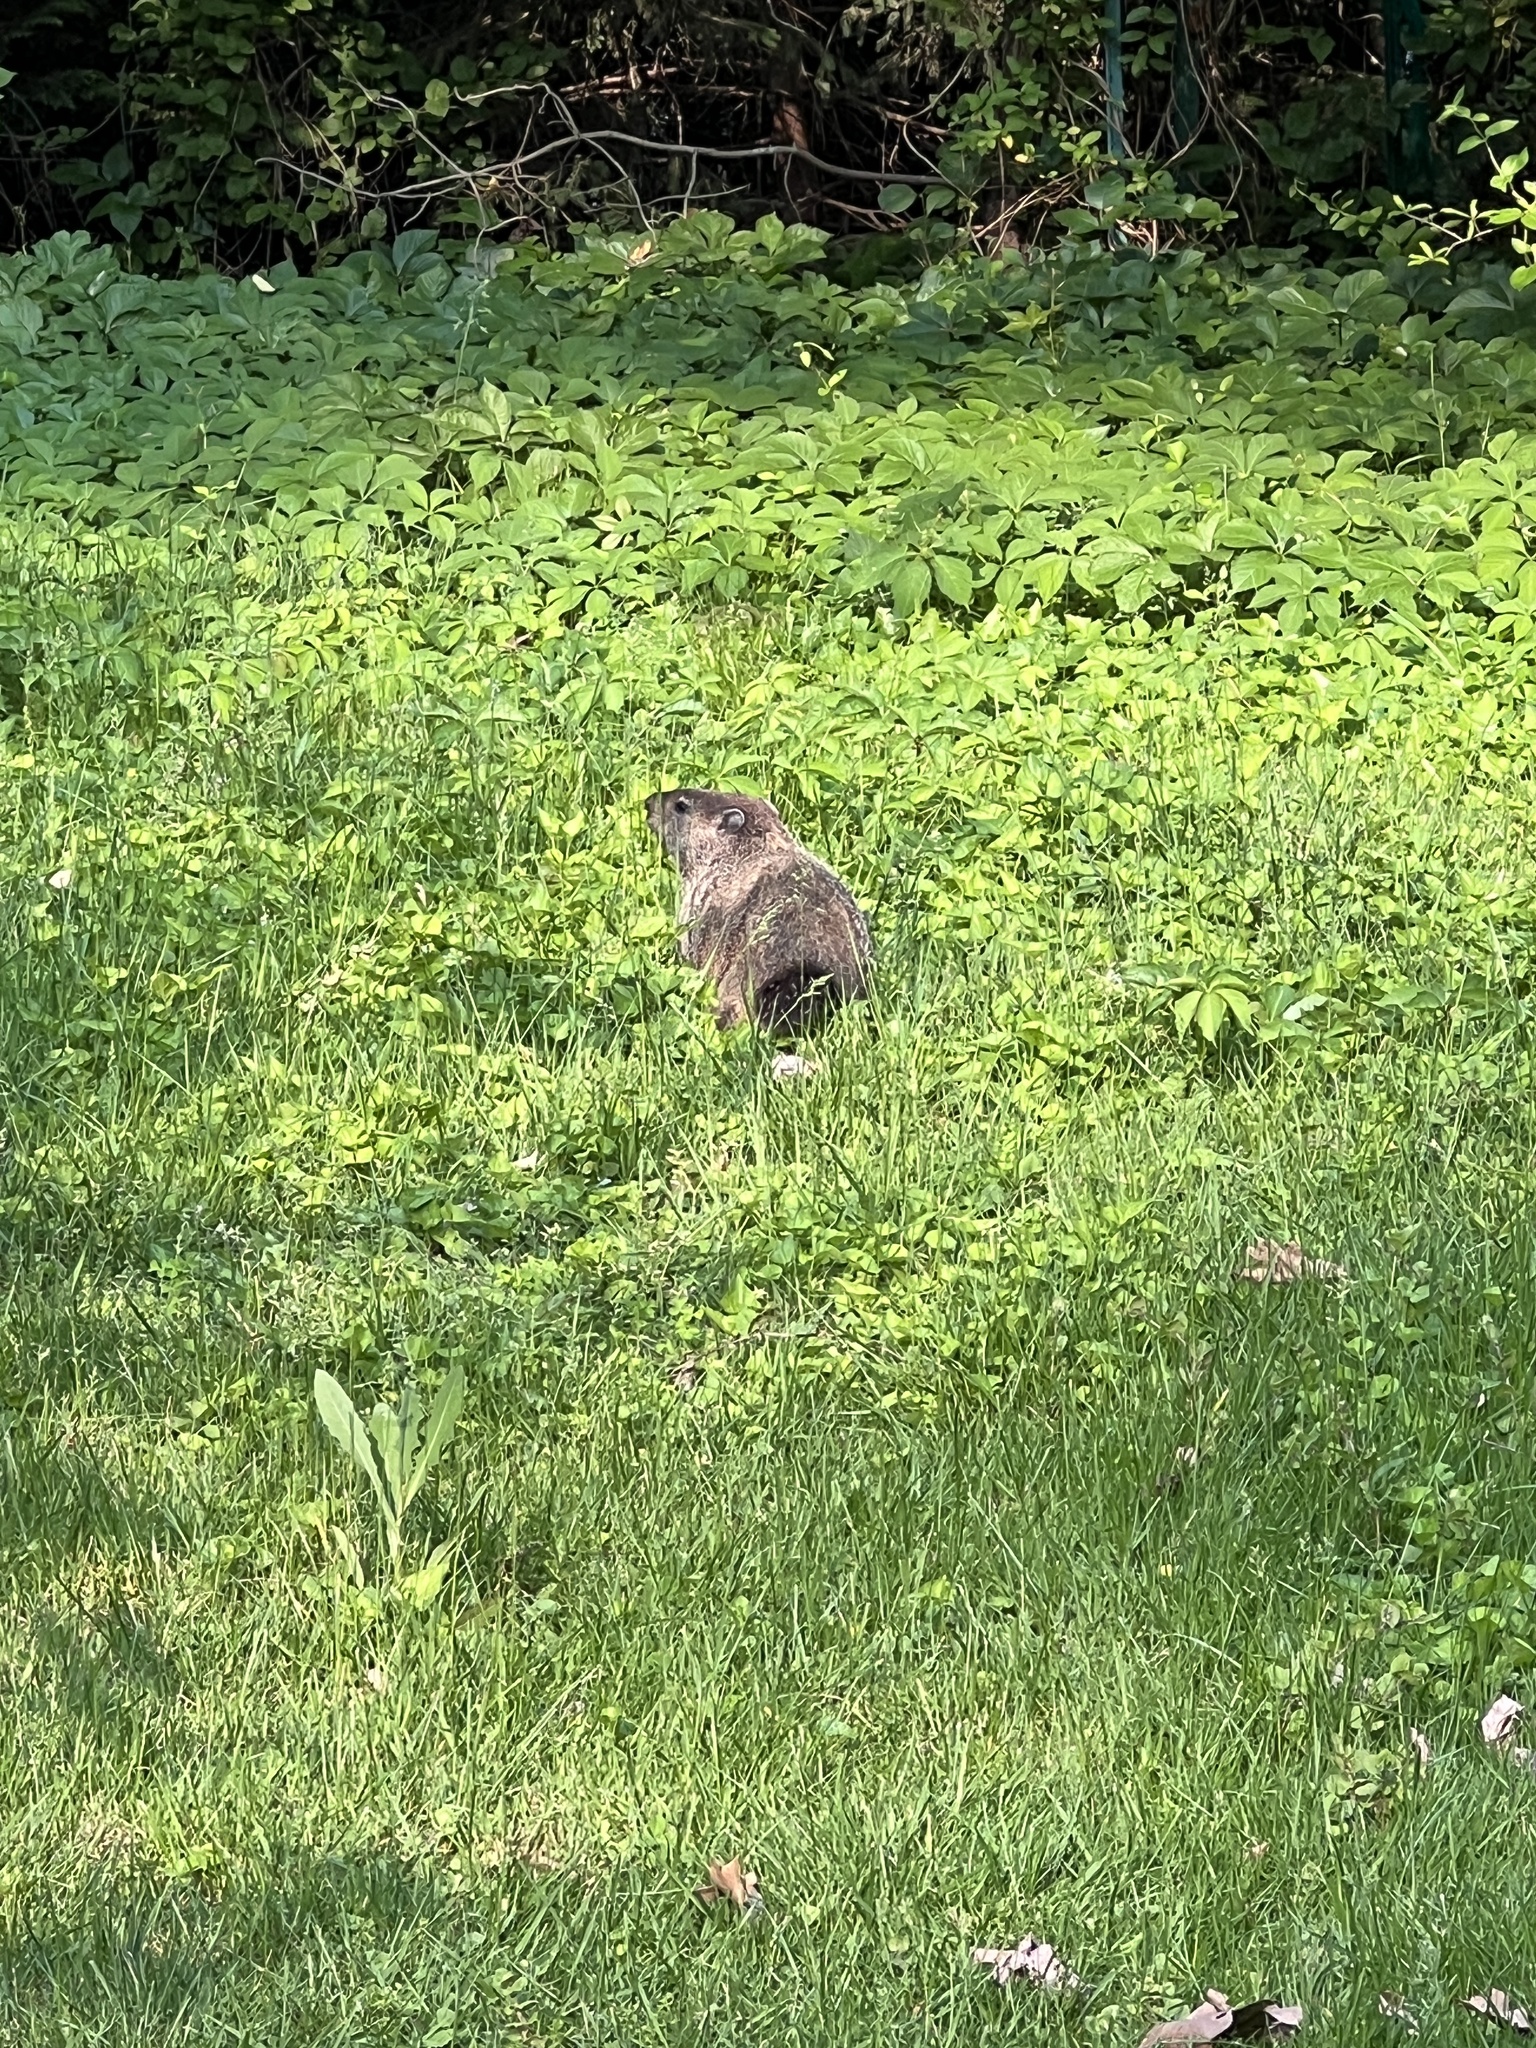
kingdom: Animalia
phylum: Chordata
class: Mammalia
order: Rodentia
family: Sciuridae
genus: Marmota
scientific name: Marmota monax
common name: Groundhog
